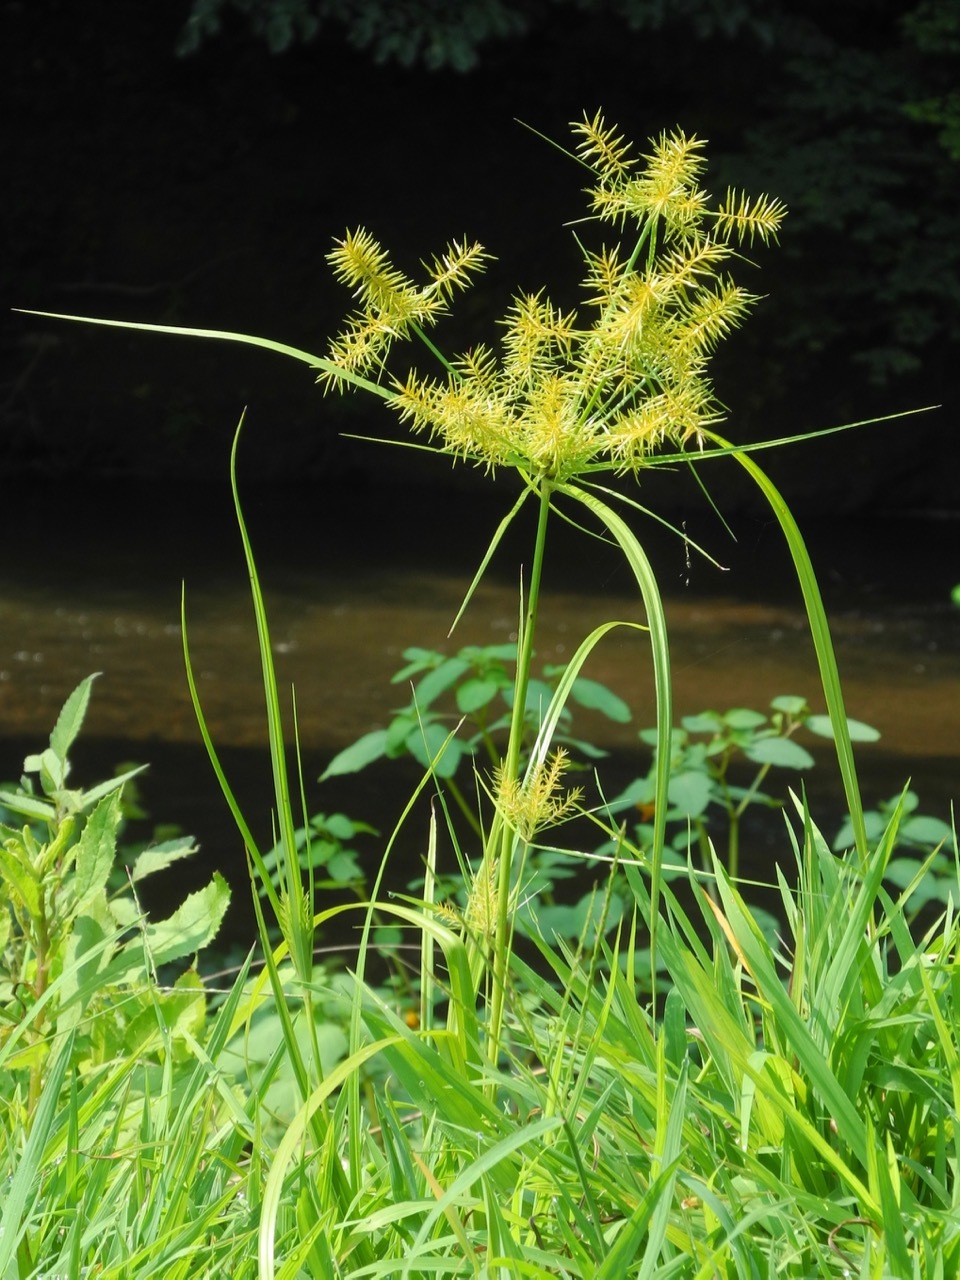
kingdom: Plantae
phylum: Tracheophyta
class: Liliopsida
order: Poales
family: Cyperaceae
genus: Cyperus
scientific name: Cyperus strigosus
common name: False nutsedge
